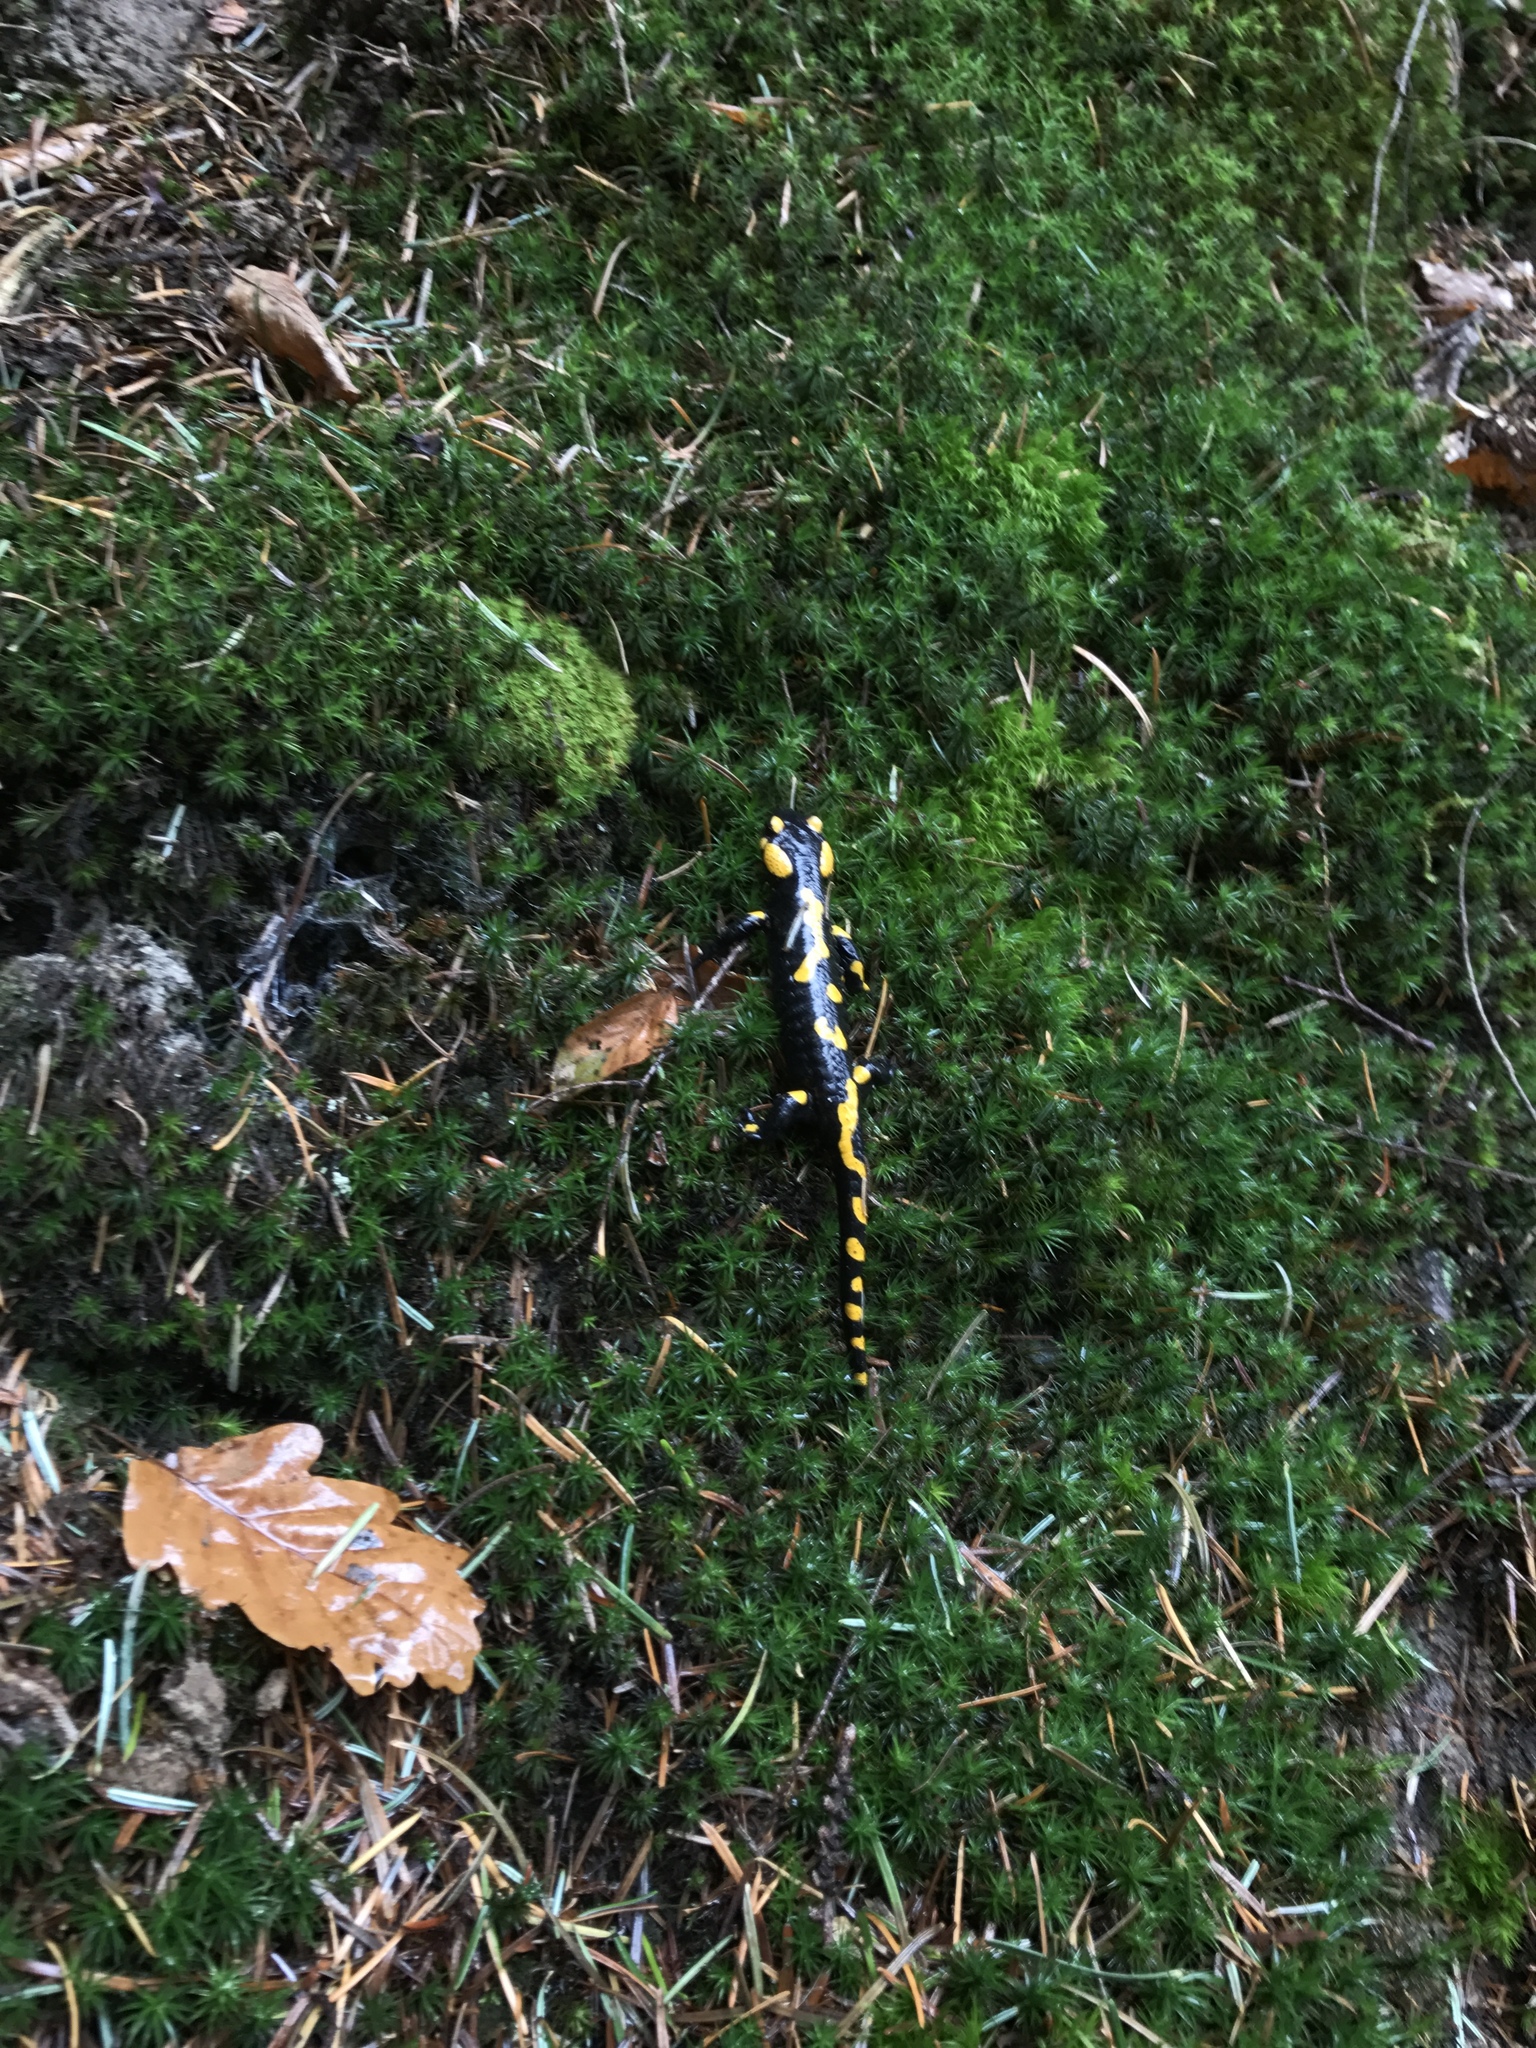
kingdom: Animalia
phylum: Chordata
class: Amphibia
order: Caudata
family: Salamandridae
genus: Salamandra
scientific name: Salamandra salamandra
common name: Fire salamander
